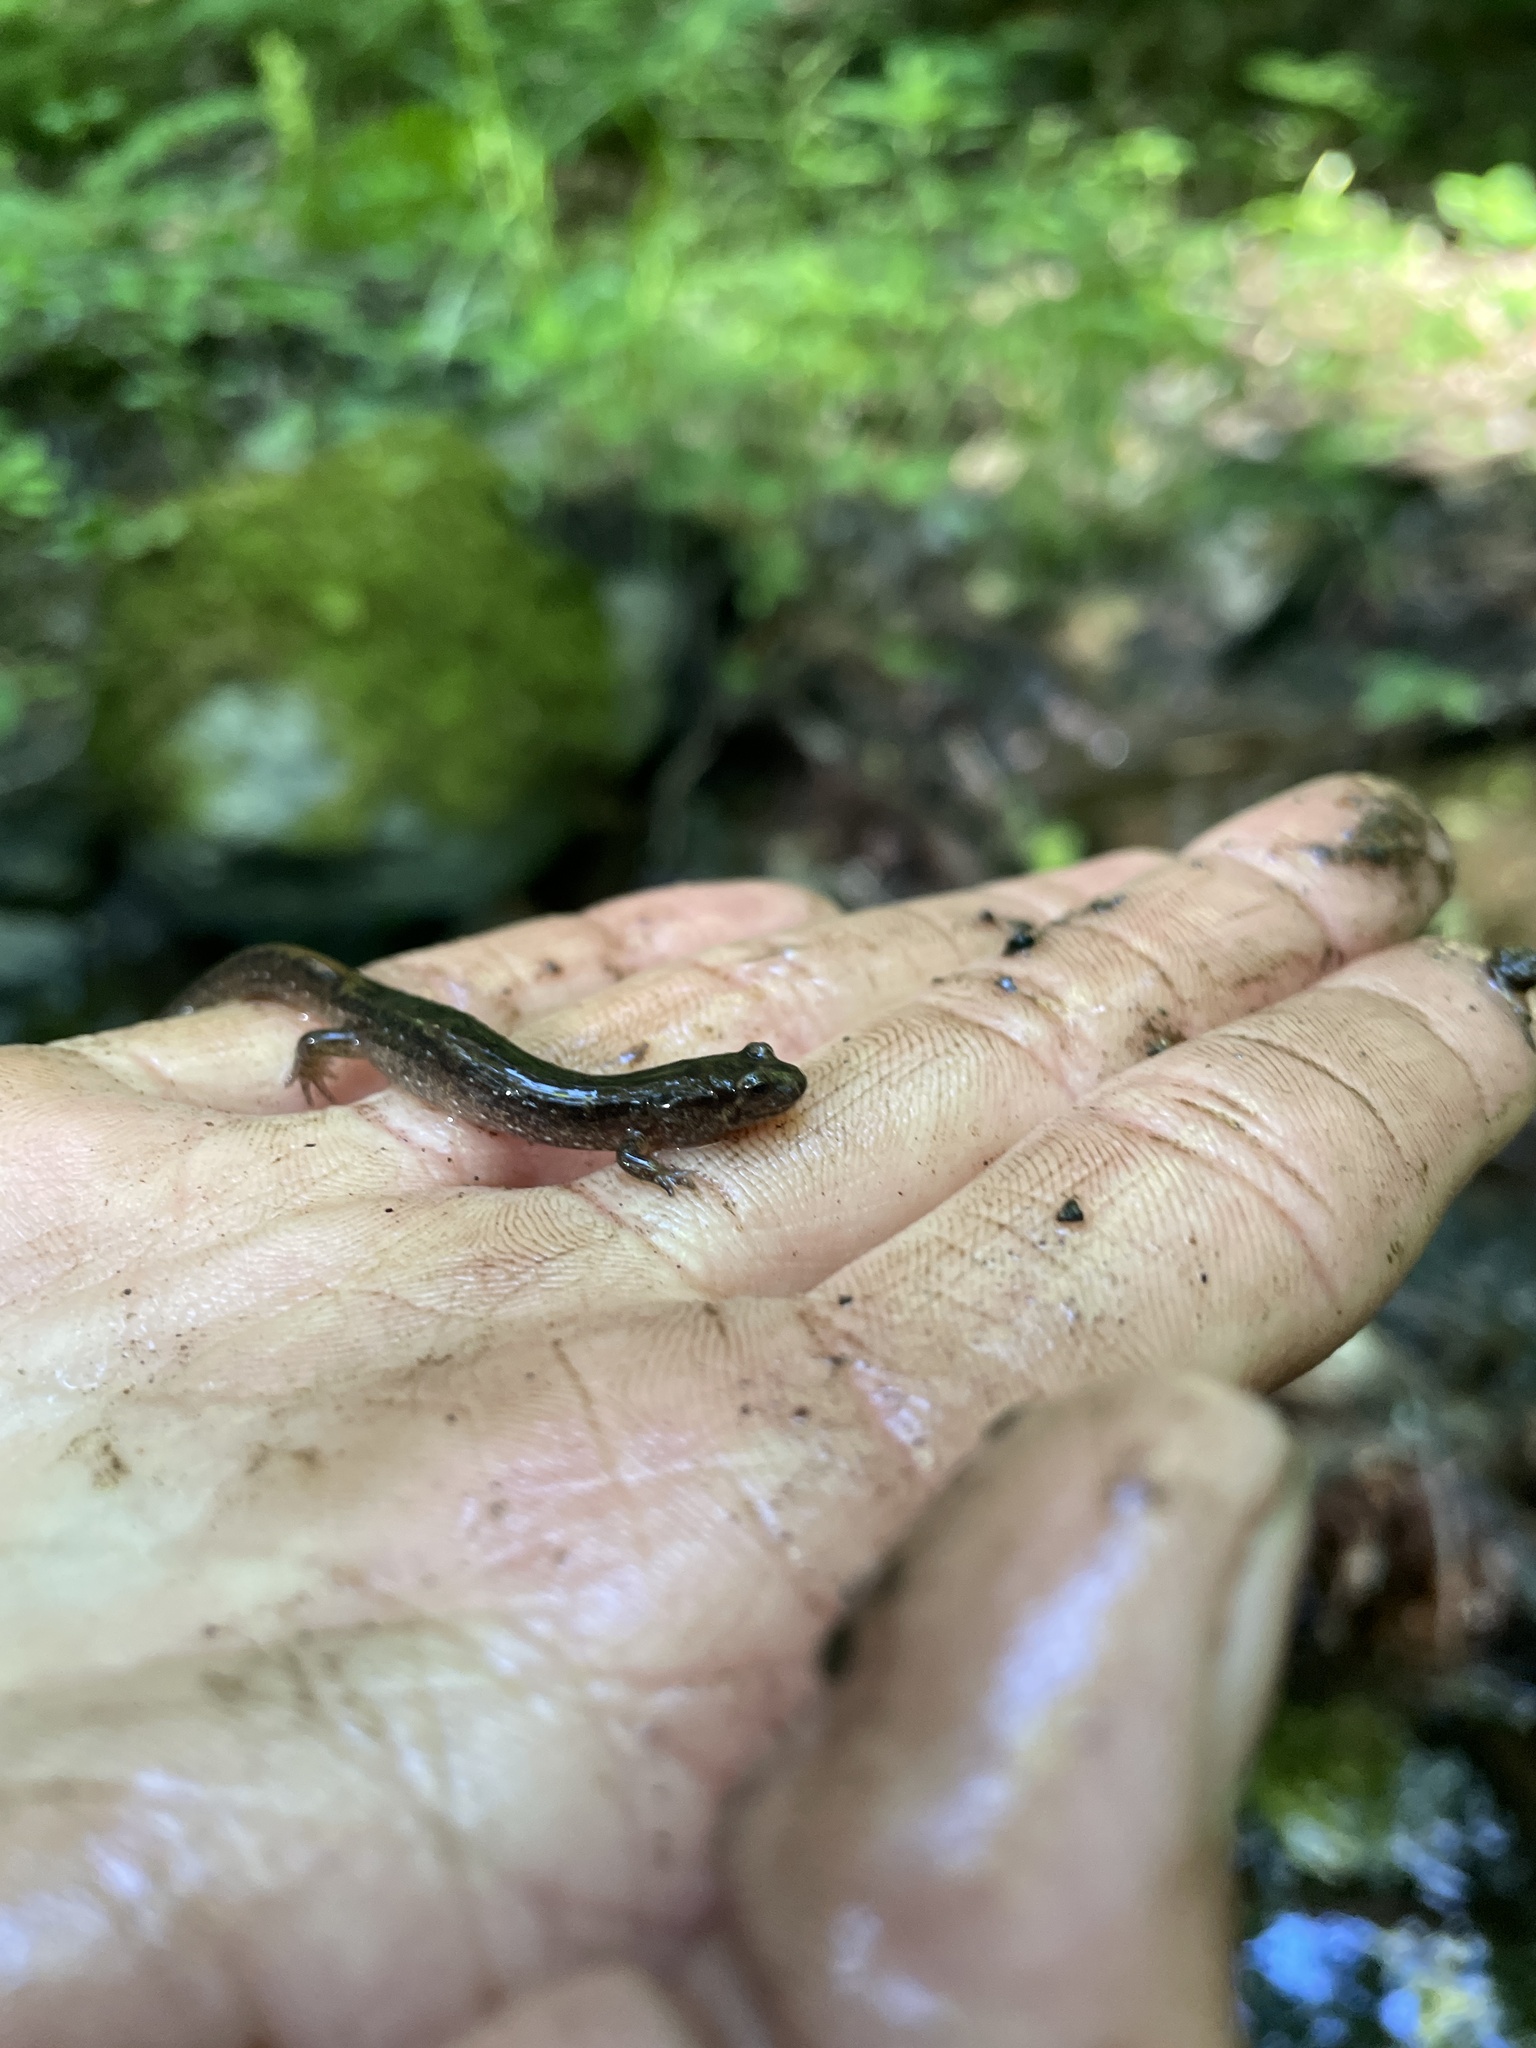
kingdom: Animalia
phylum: Chordata
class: Amphibia
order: Caudata
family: Plethodontidae
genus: Desmognathus
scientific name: Desmognathus fuscus
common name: Northern dusky salamander
